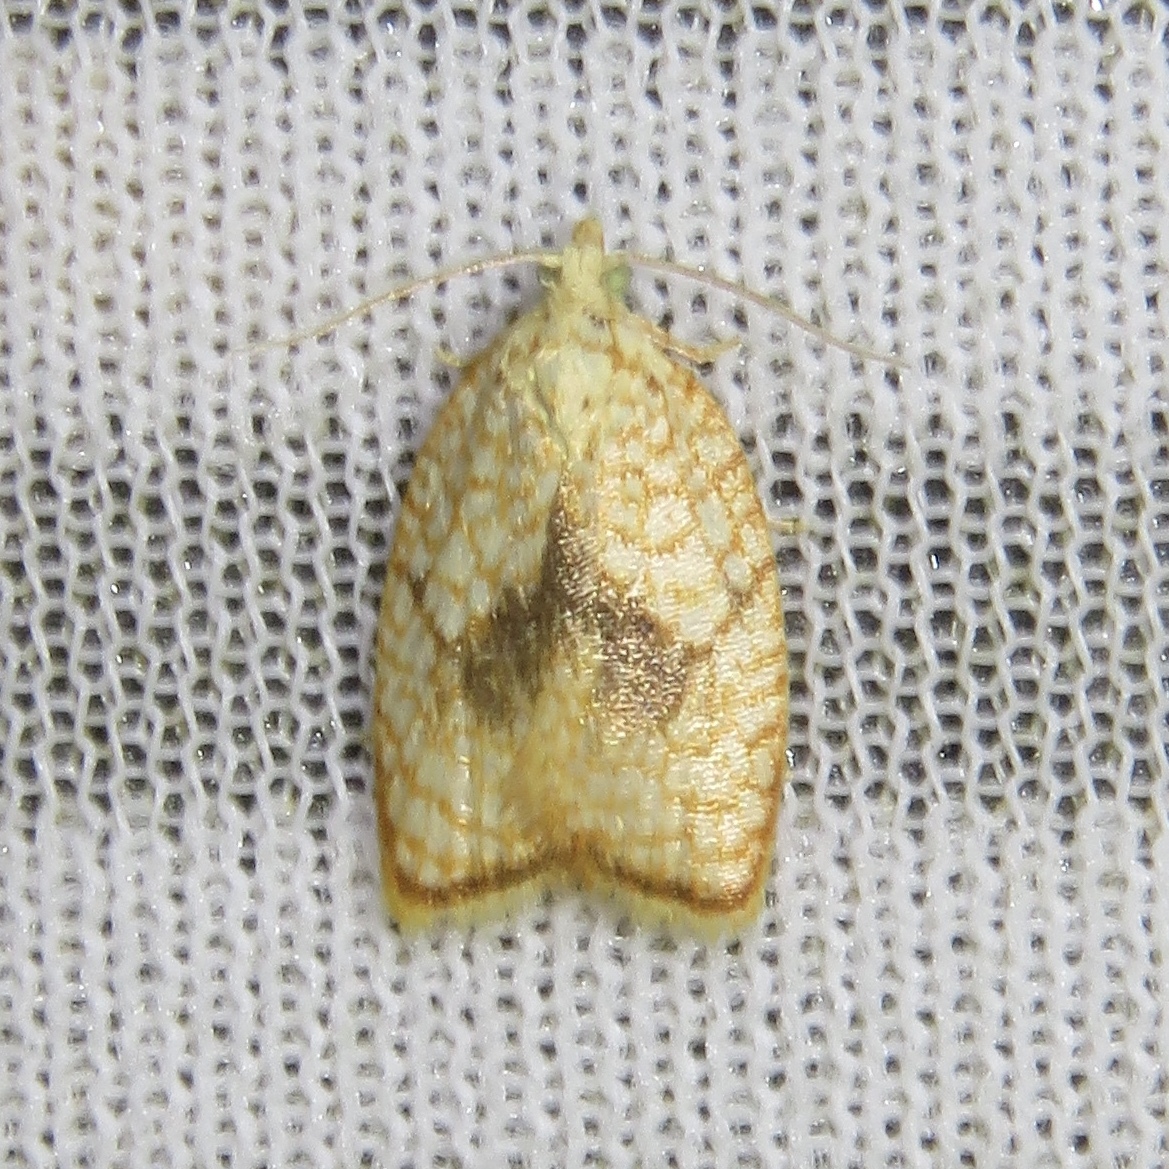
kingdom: Animalia
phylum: Arthropoda
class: Insecta
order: Lepidoptera
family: Tortricidae
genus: Acleris
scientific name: Acleris forsskaleana
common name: Maple button
